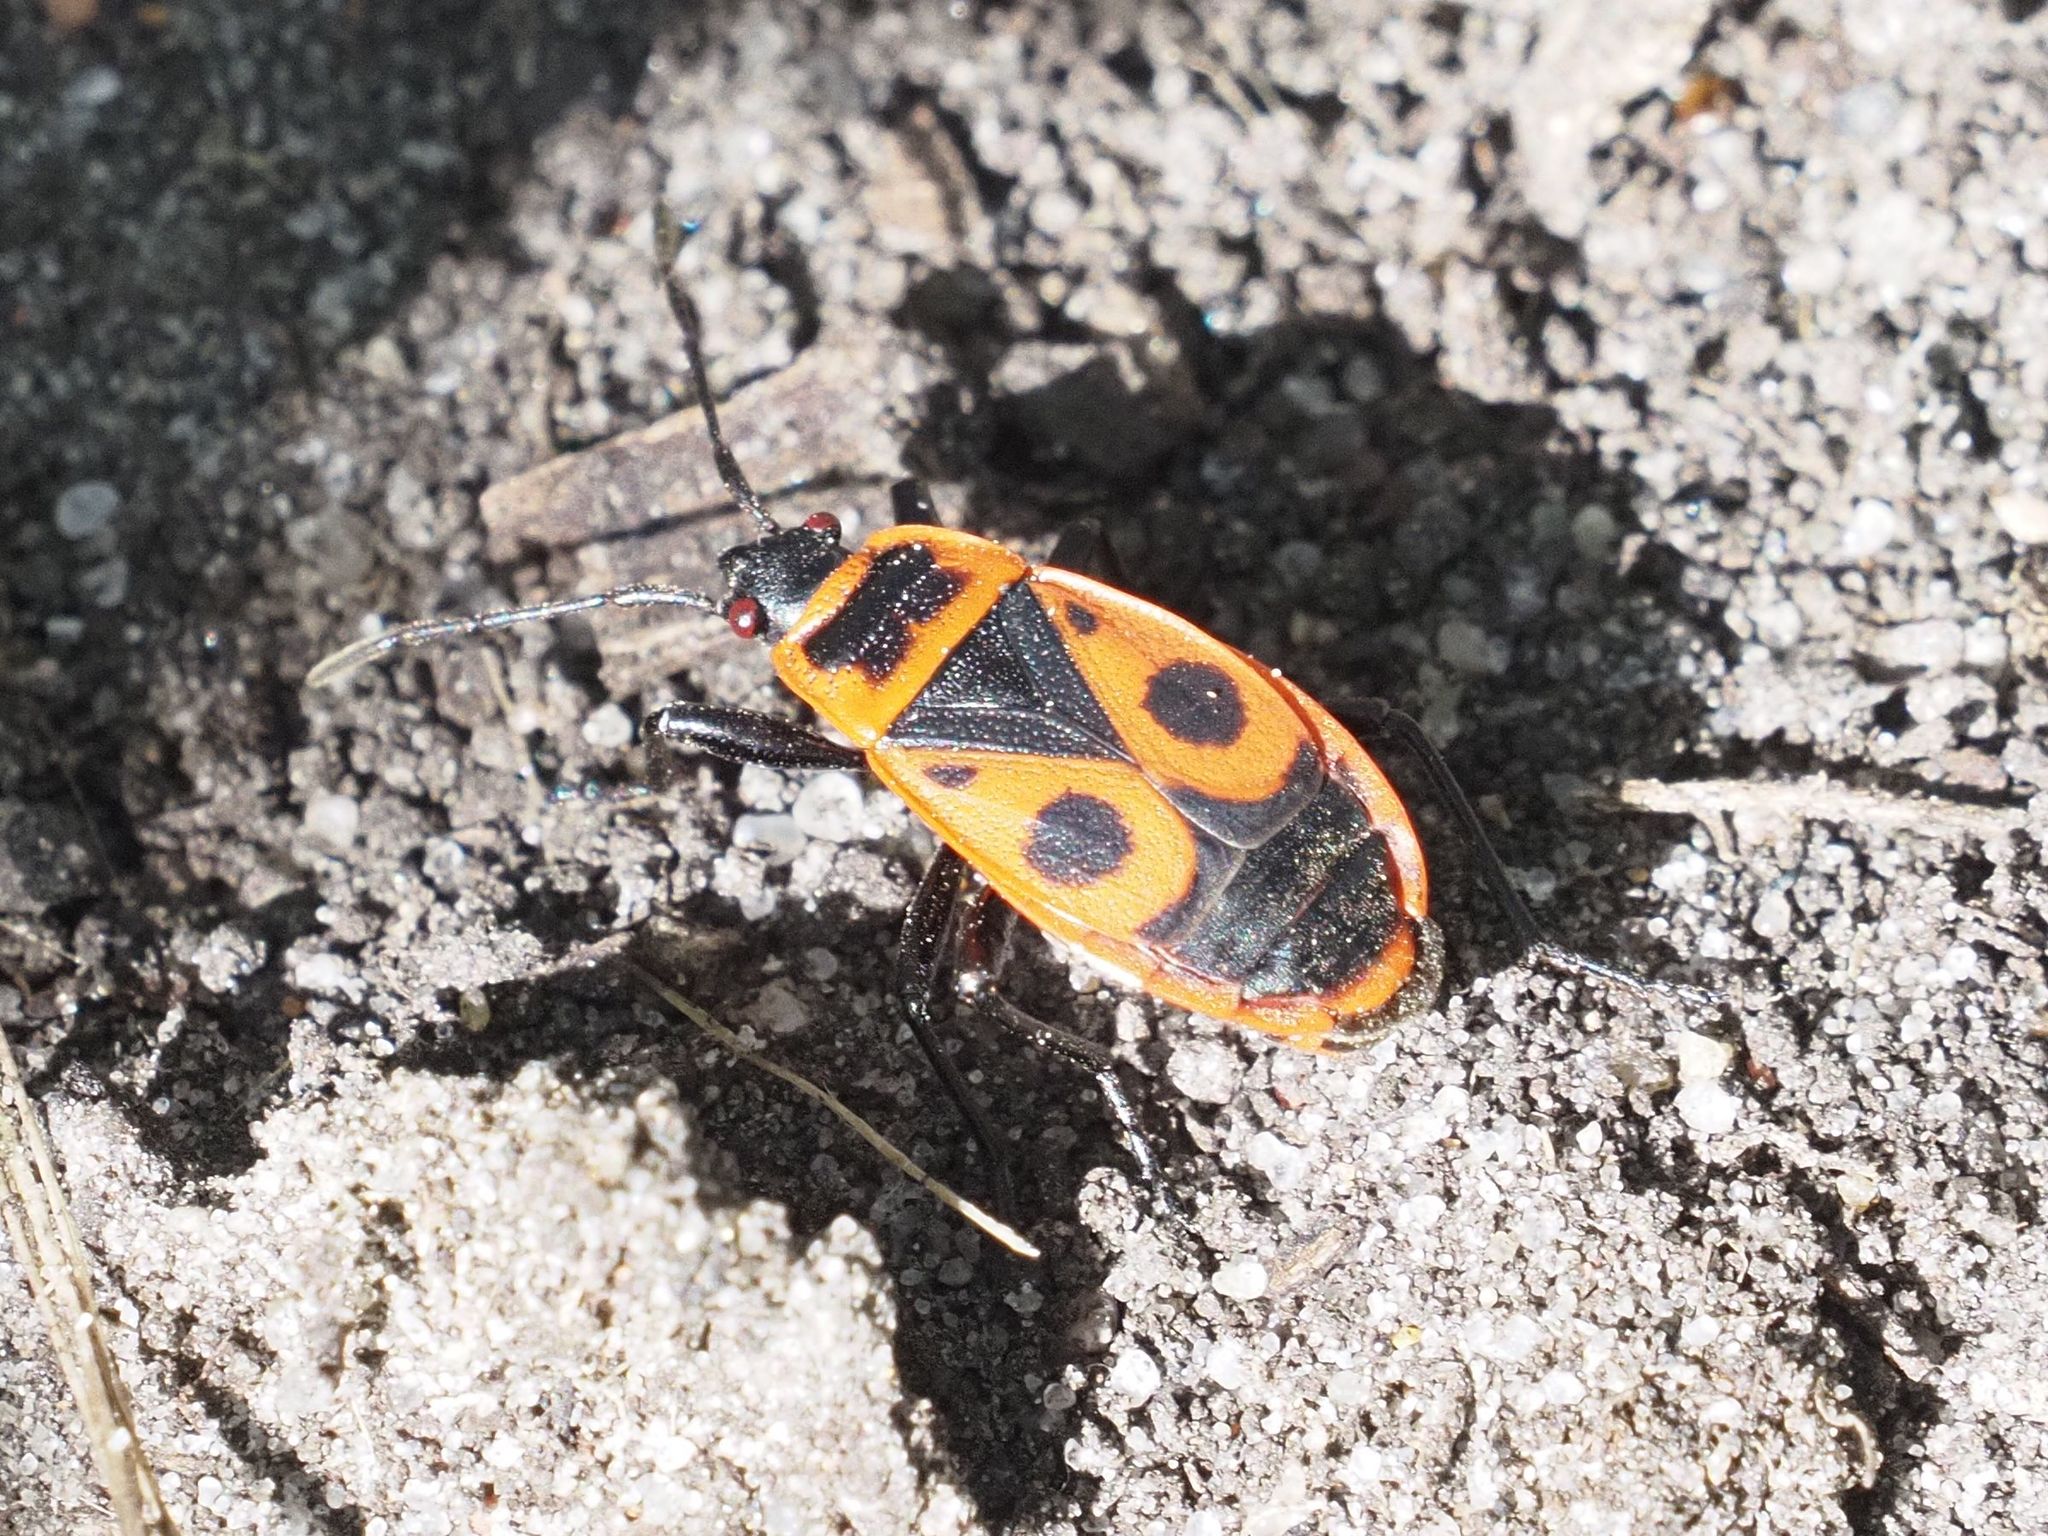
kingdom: Animalia
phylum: Arthropoda
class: Insecta
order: Hemiptera
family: Pyrrhocoridae
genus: Pyrrhocoris
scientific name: Pyrrhocoris apterus
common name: Firebug
